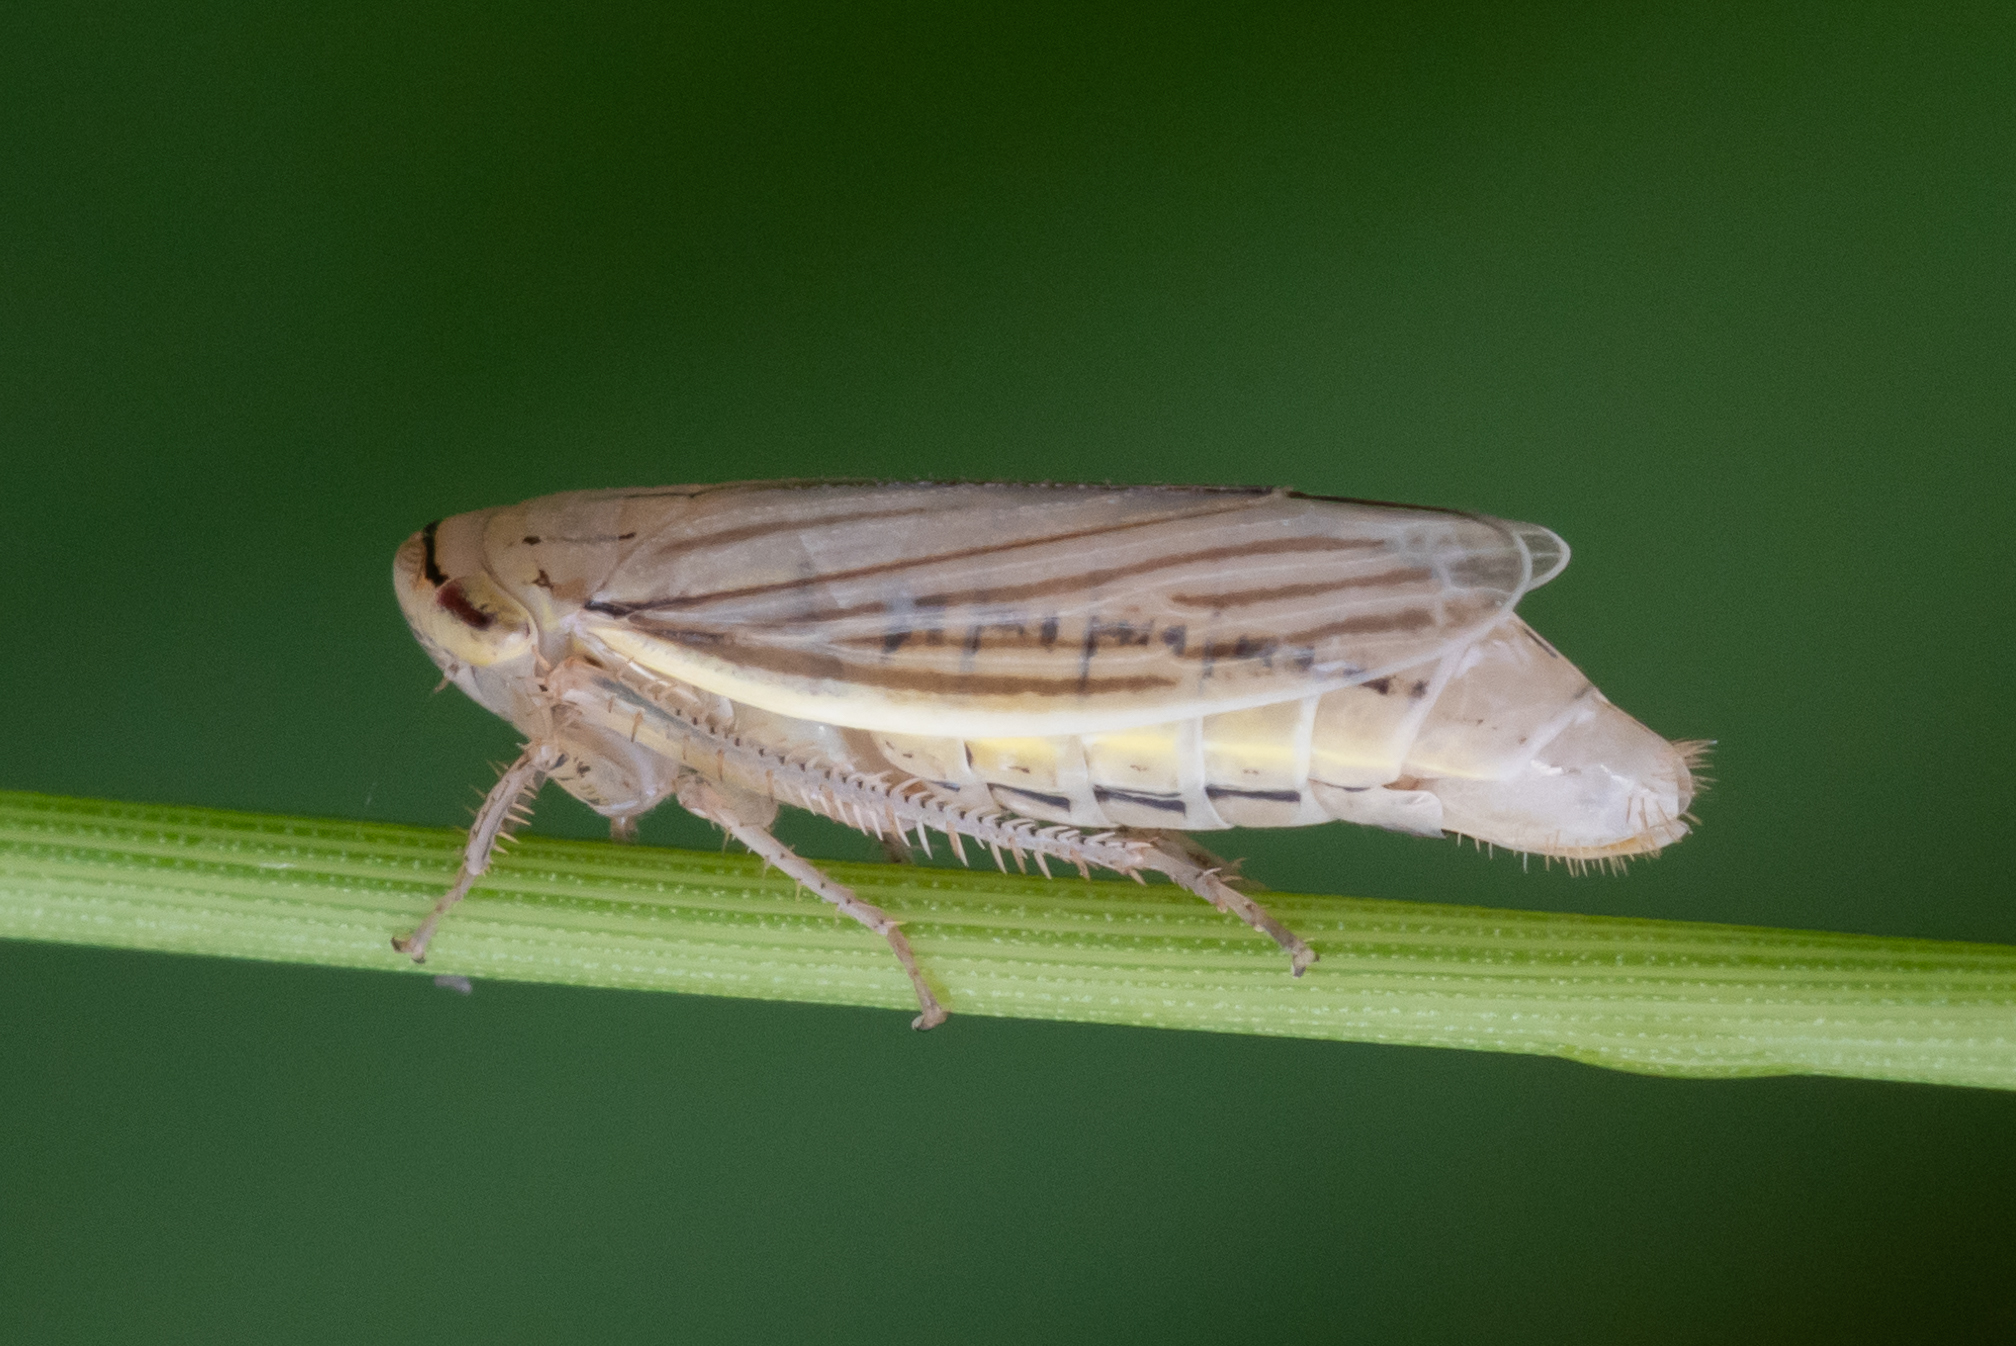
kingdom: Animalia
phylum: Arthropoda
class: Insecta
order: Hemiptera
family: Cicadellidae
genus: Athysanus
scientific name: Athysanus argentarius
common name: Silver leafhopper
